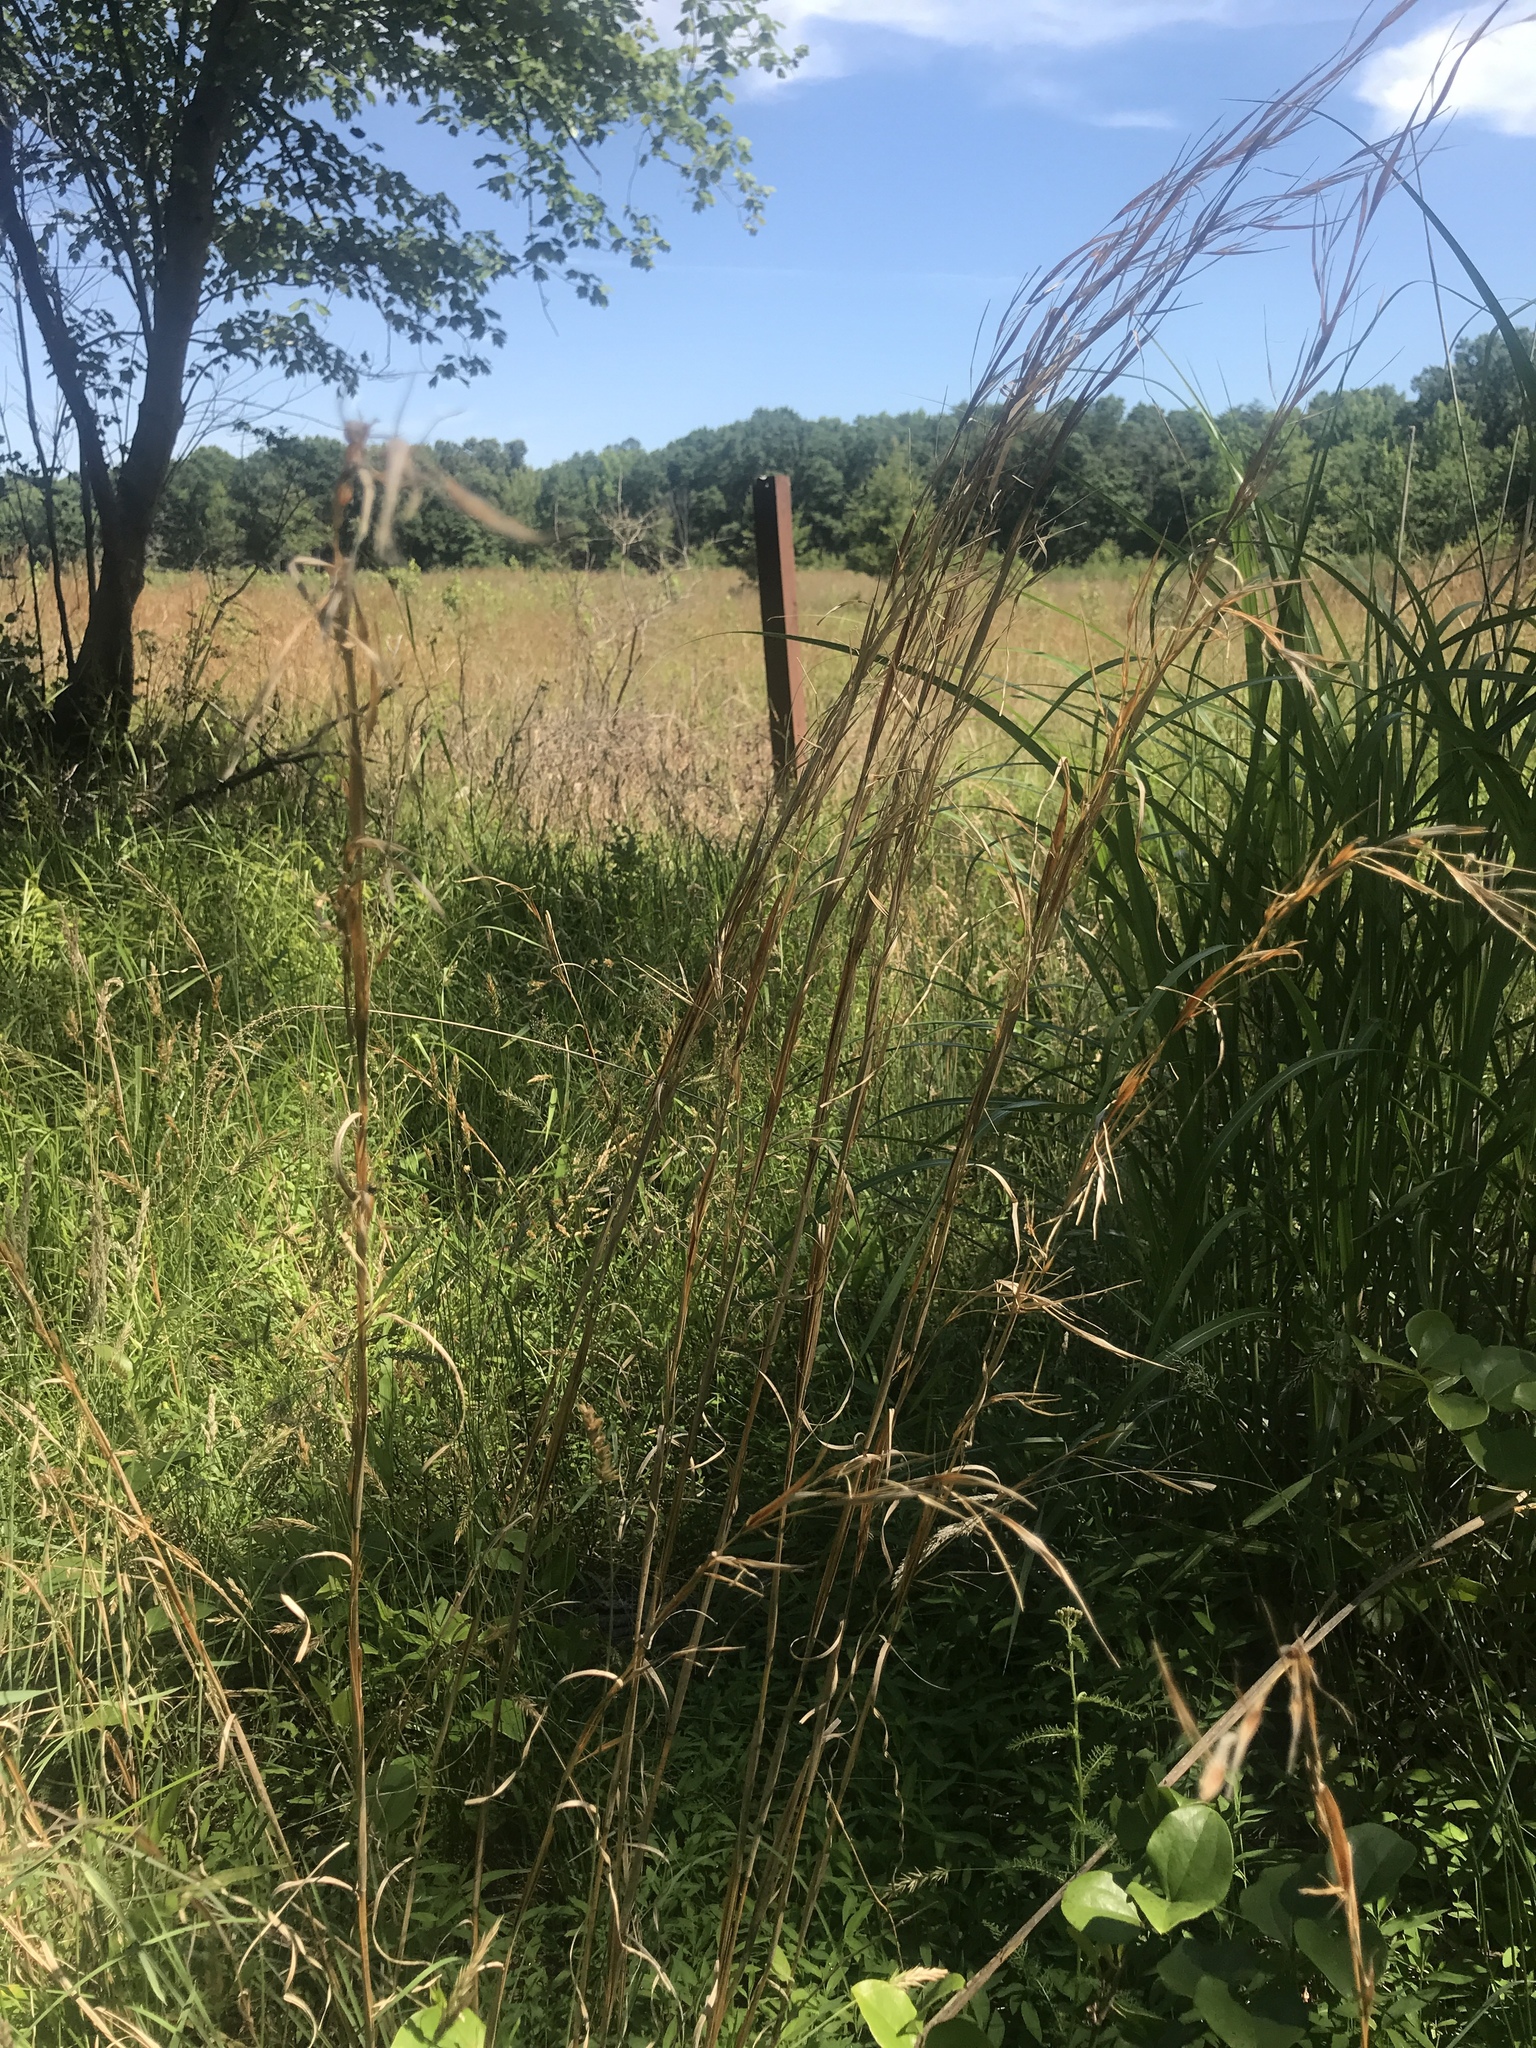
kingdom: Plantae
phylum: Tracheophyta
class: Liliopsida
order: Poales
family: Poaceae
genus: Andropogon
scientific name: Andropogon virginicus
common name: Broomsedge bluestem
